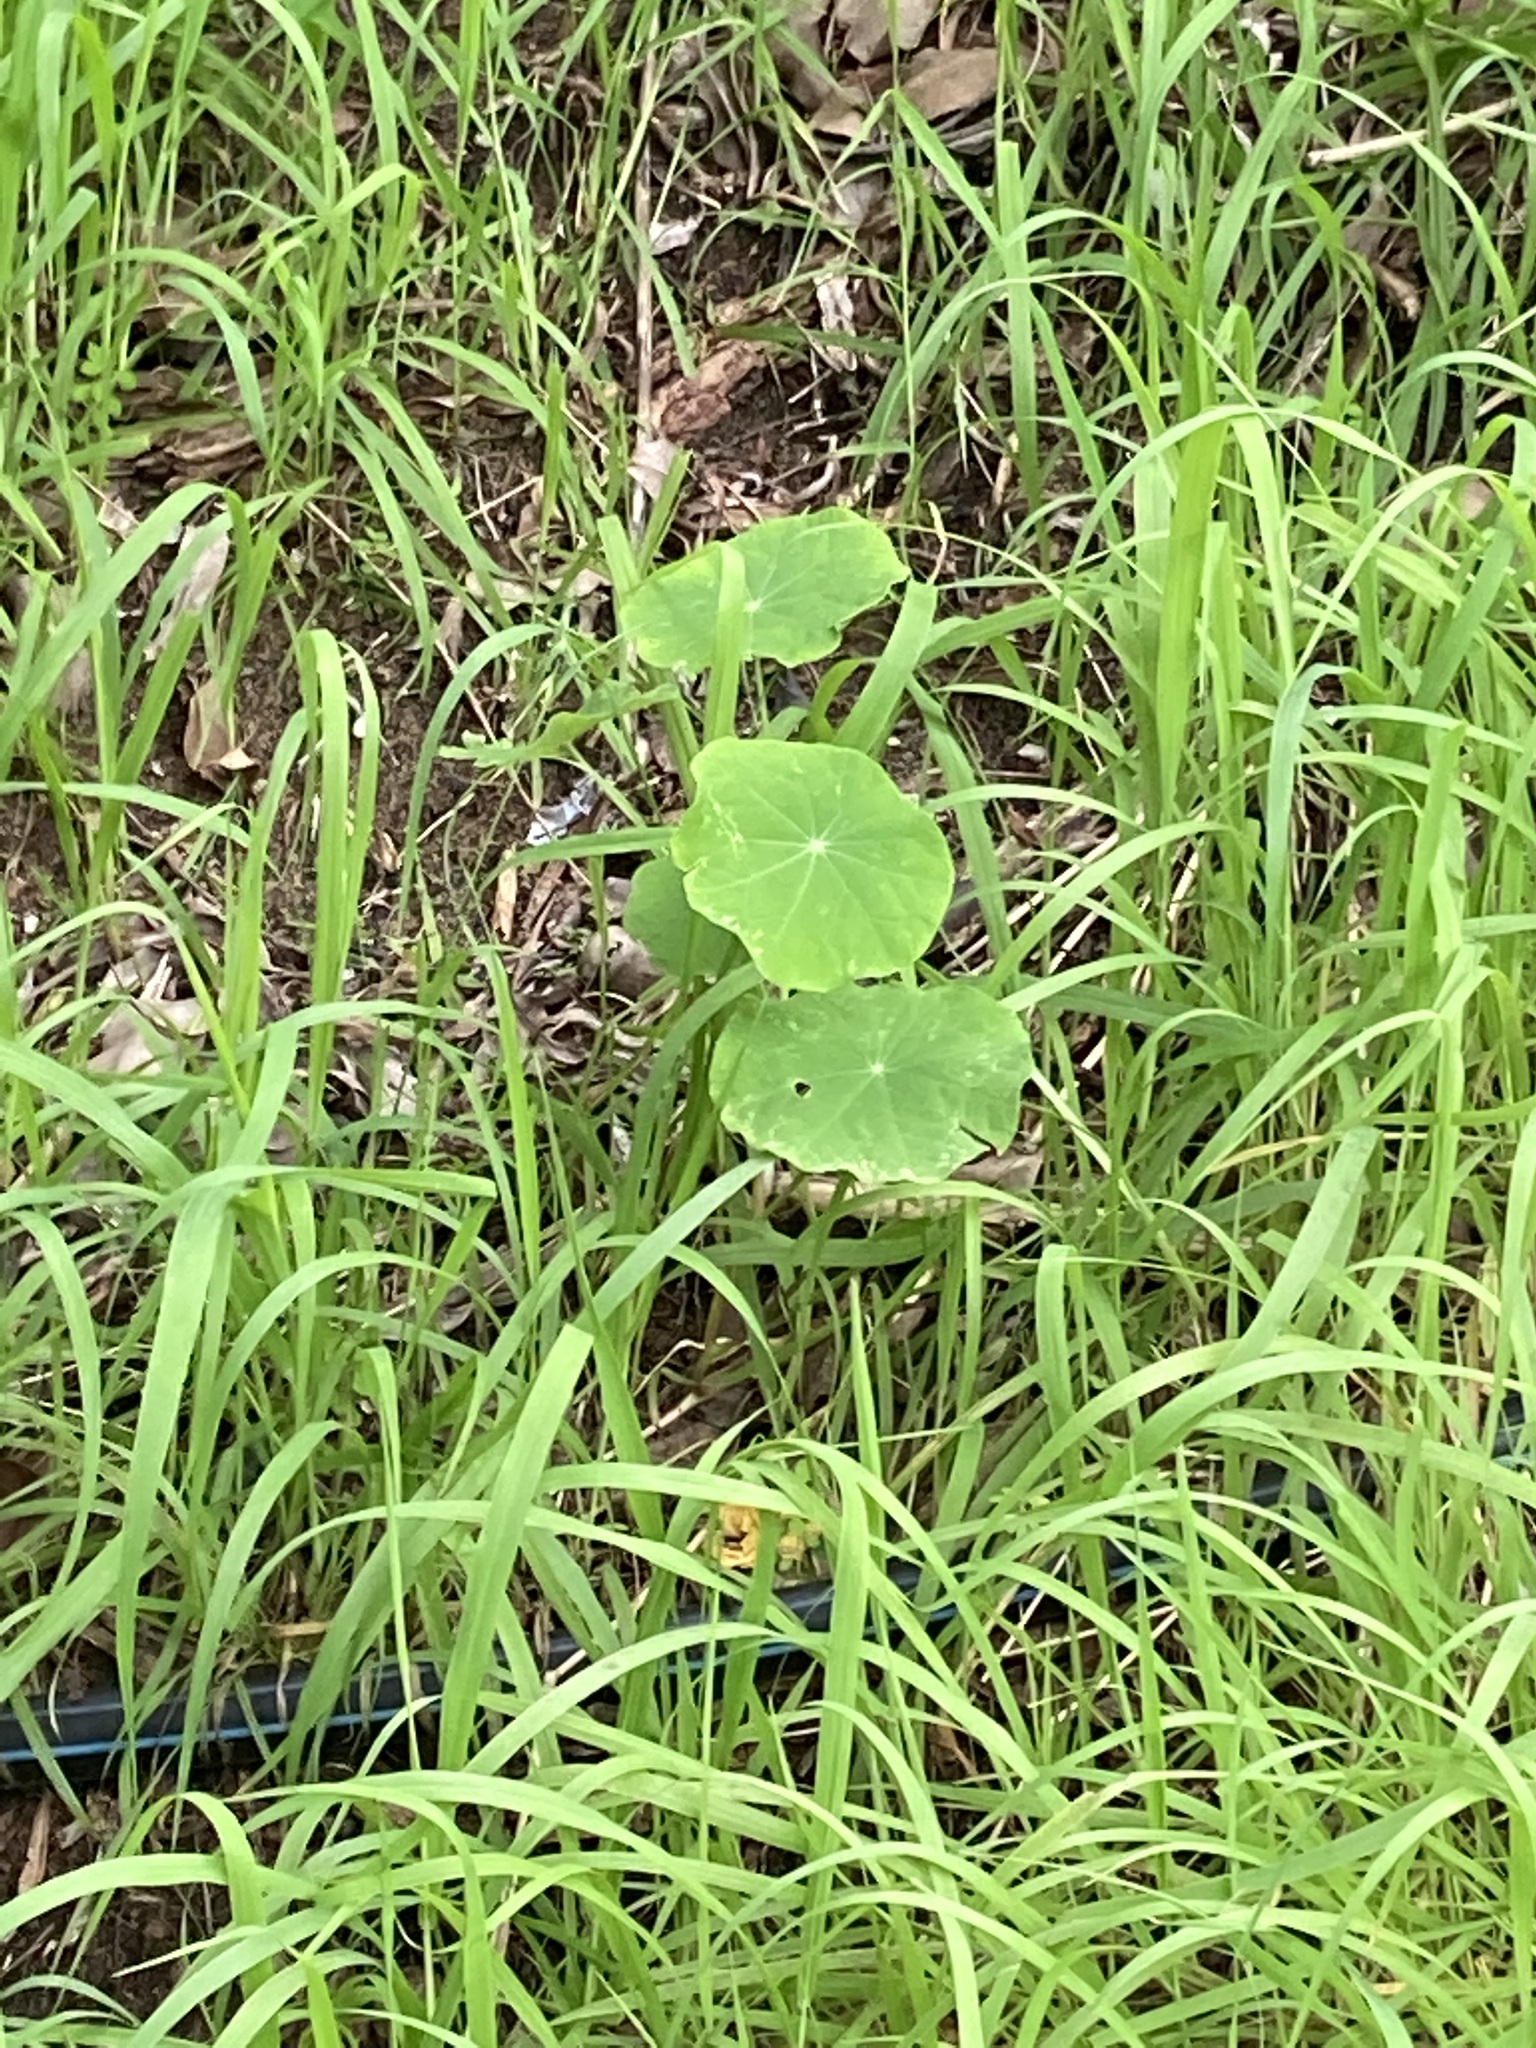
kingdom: Plantae
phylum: Tracheophyta
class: Magnoliopsida
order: Brassicales
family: Tropaeolaceae
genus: Tropaeolum
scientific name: Tropaeolum majus
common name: Nasturtium
